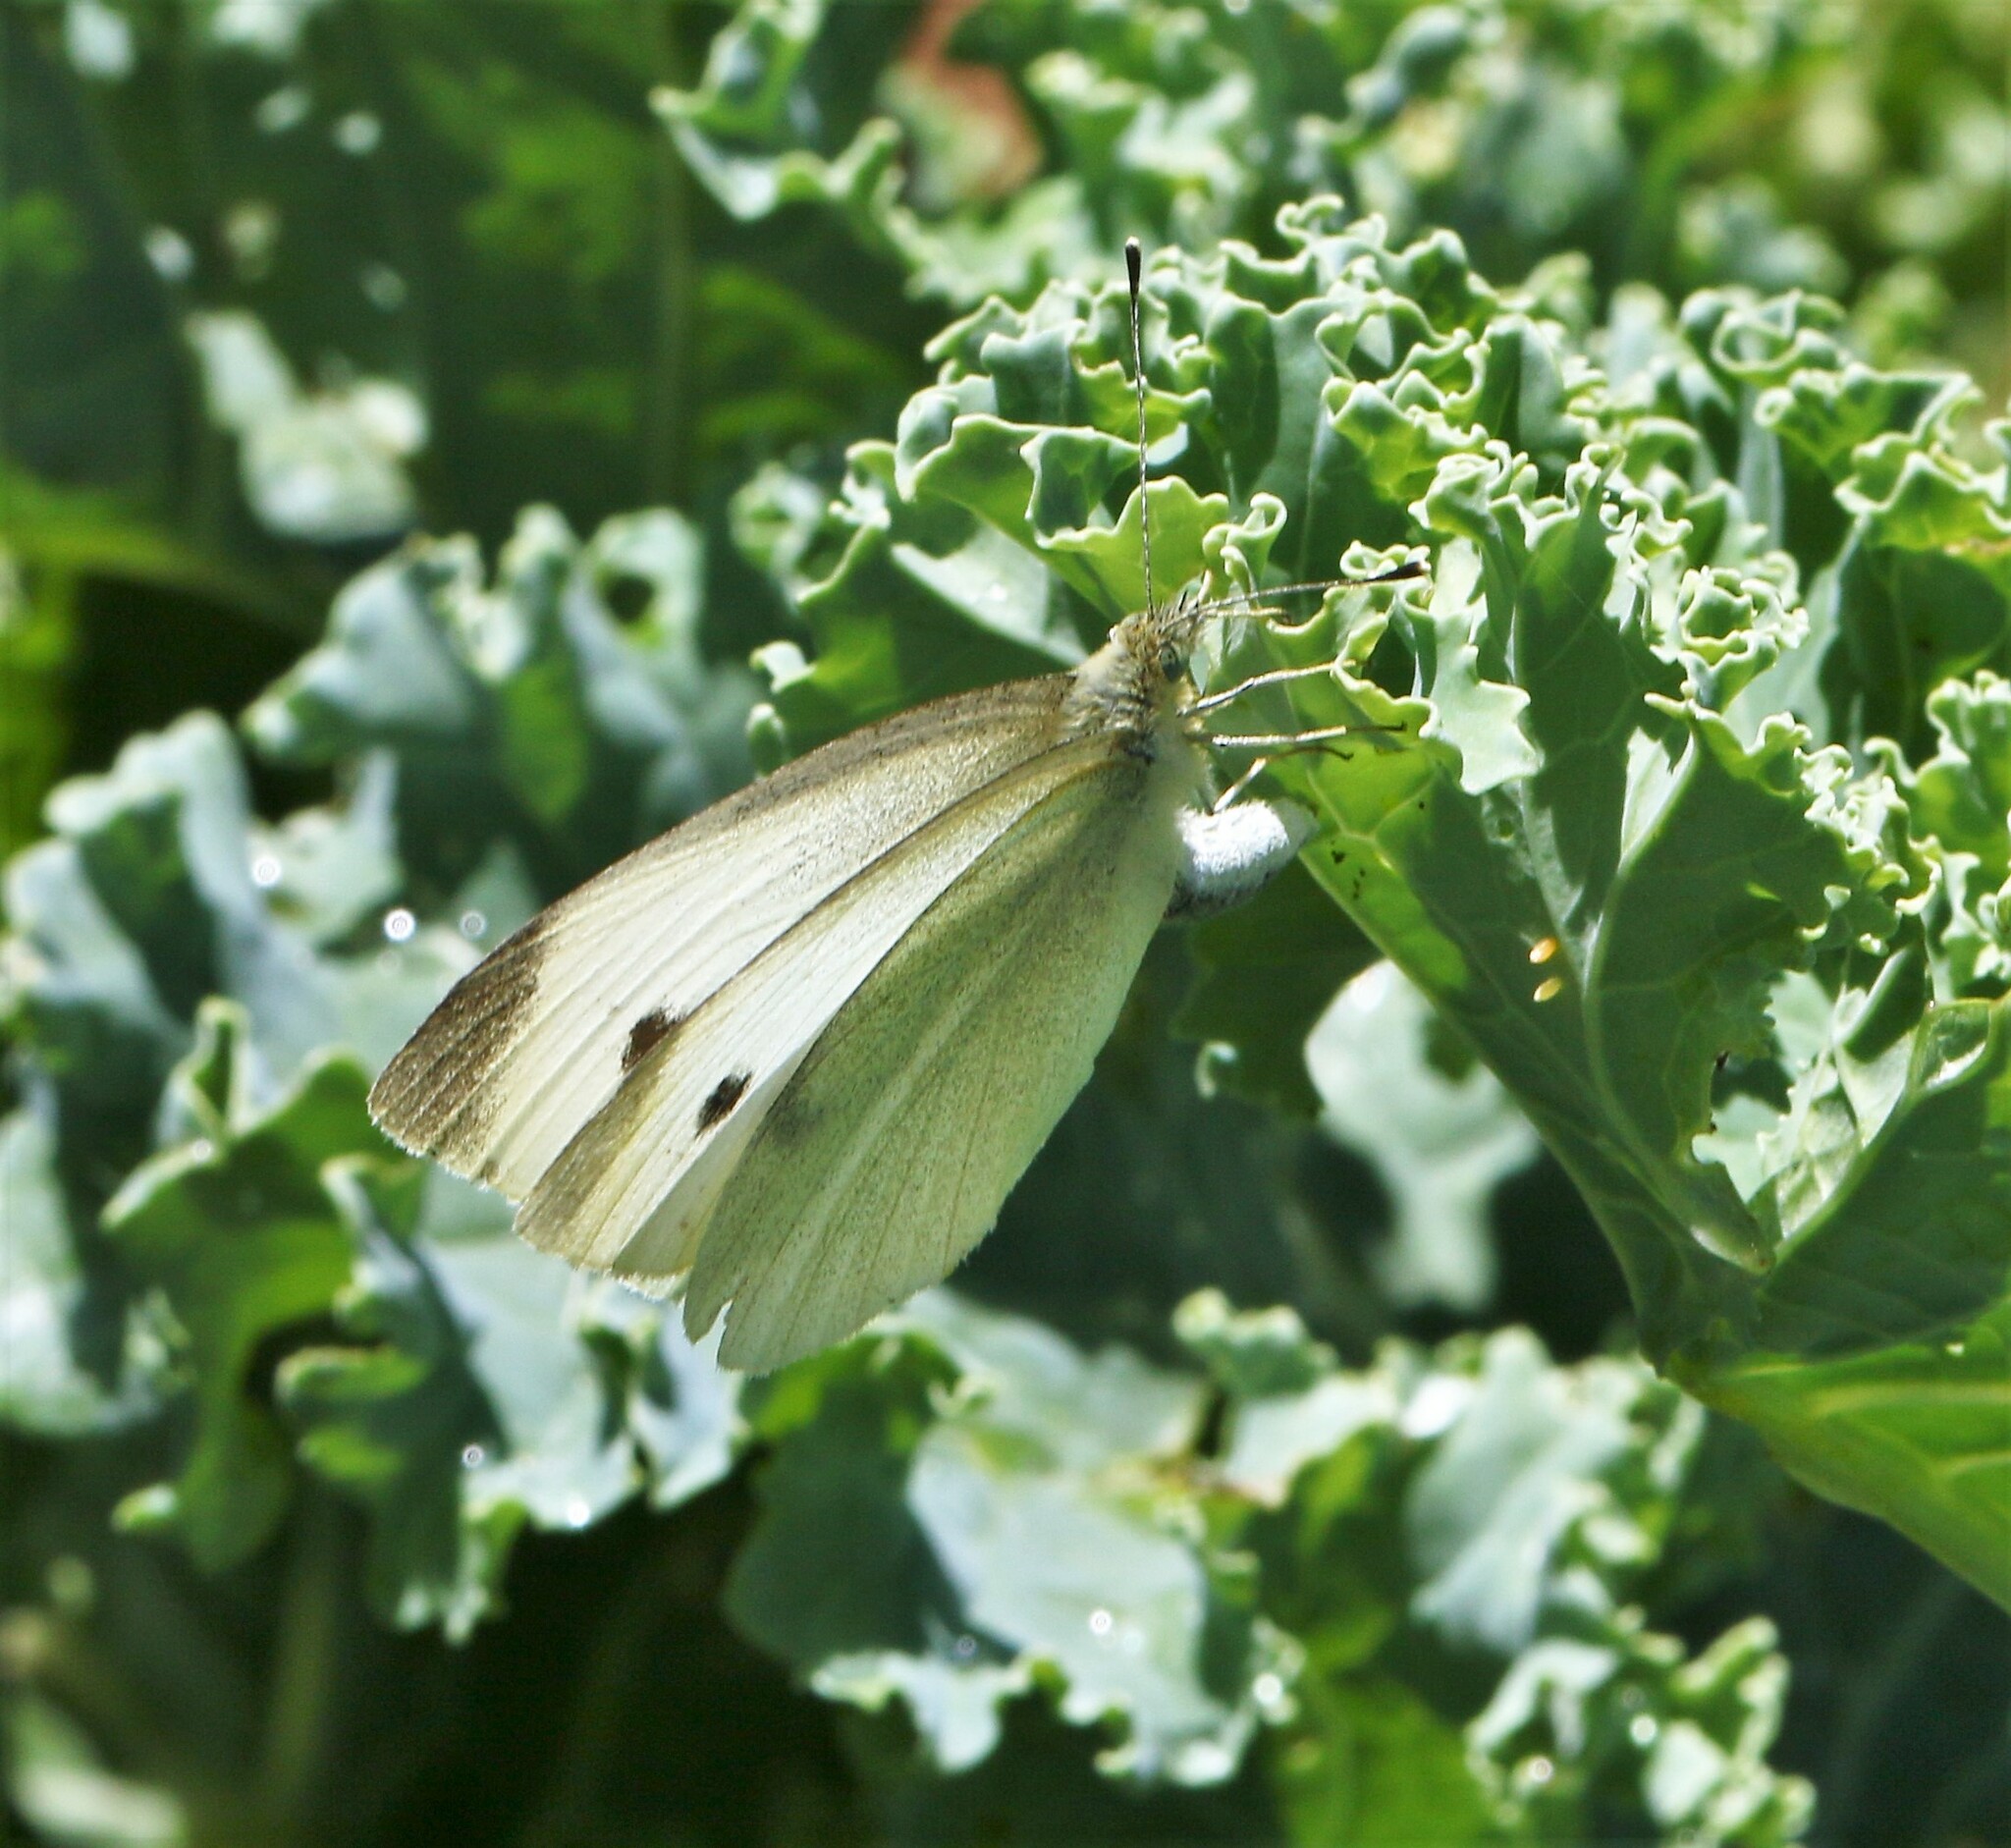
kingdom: Animalia
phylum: Arthropoda
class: Insecta
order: Lepidoptera
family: Pieridae
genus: Pieris
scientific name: Pieris rapae
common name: Small white
